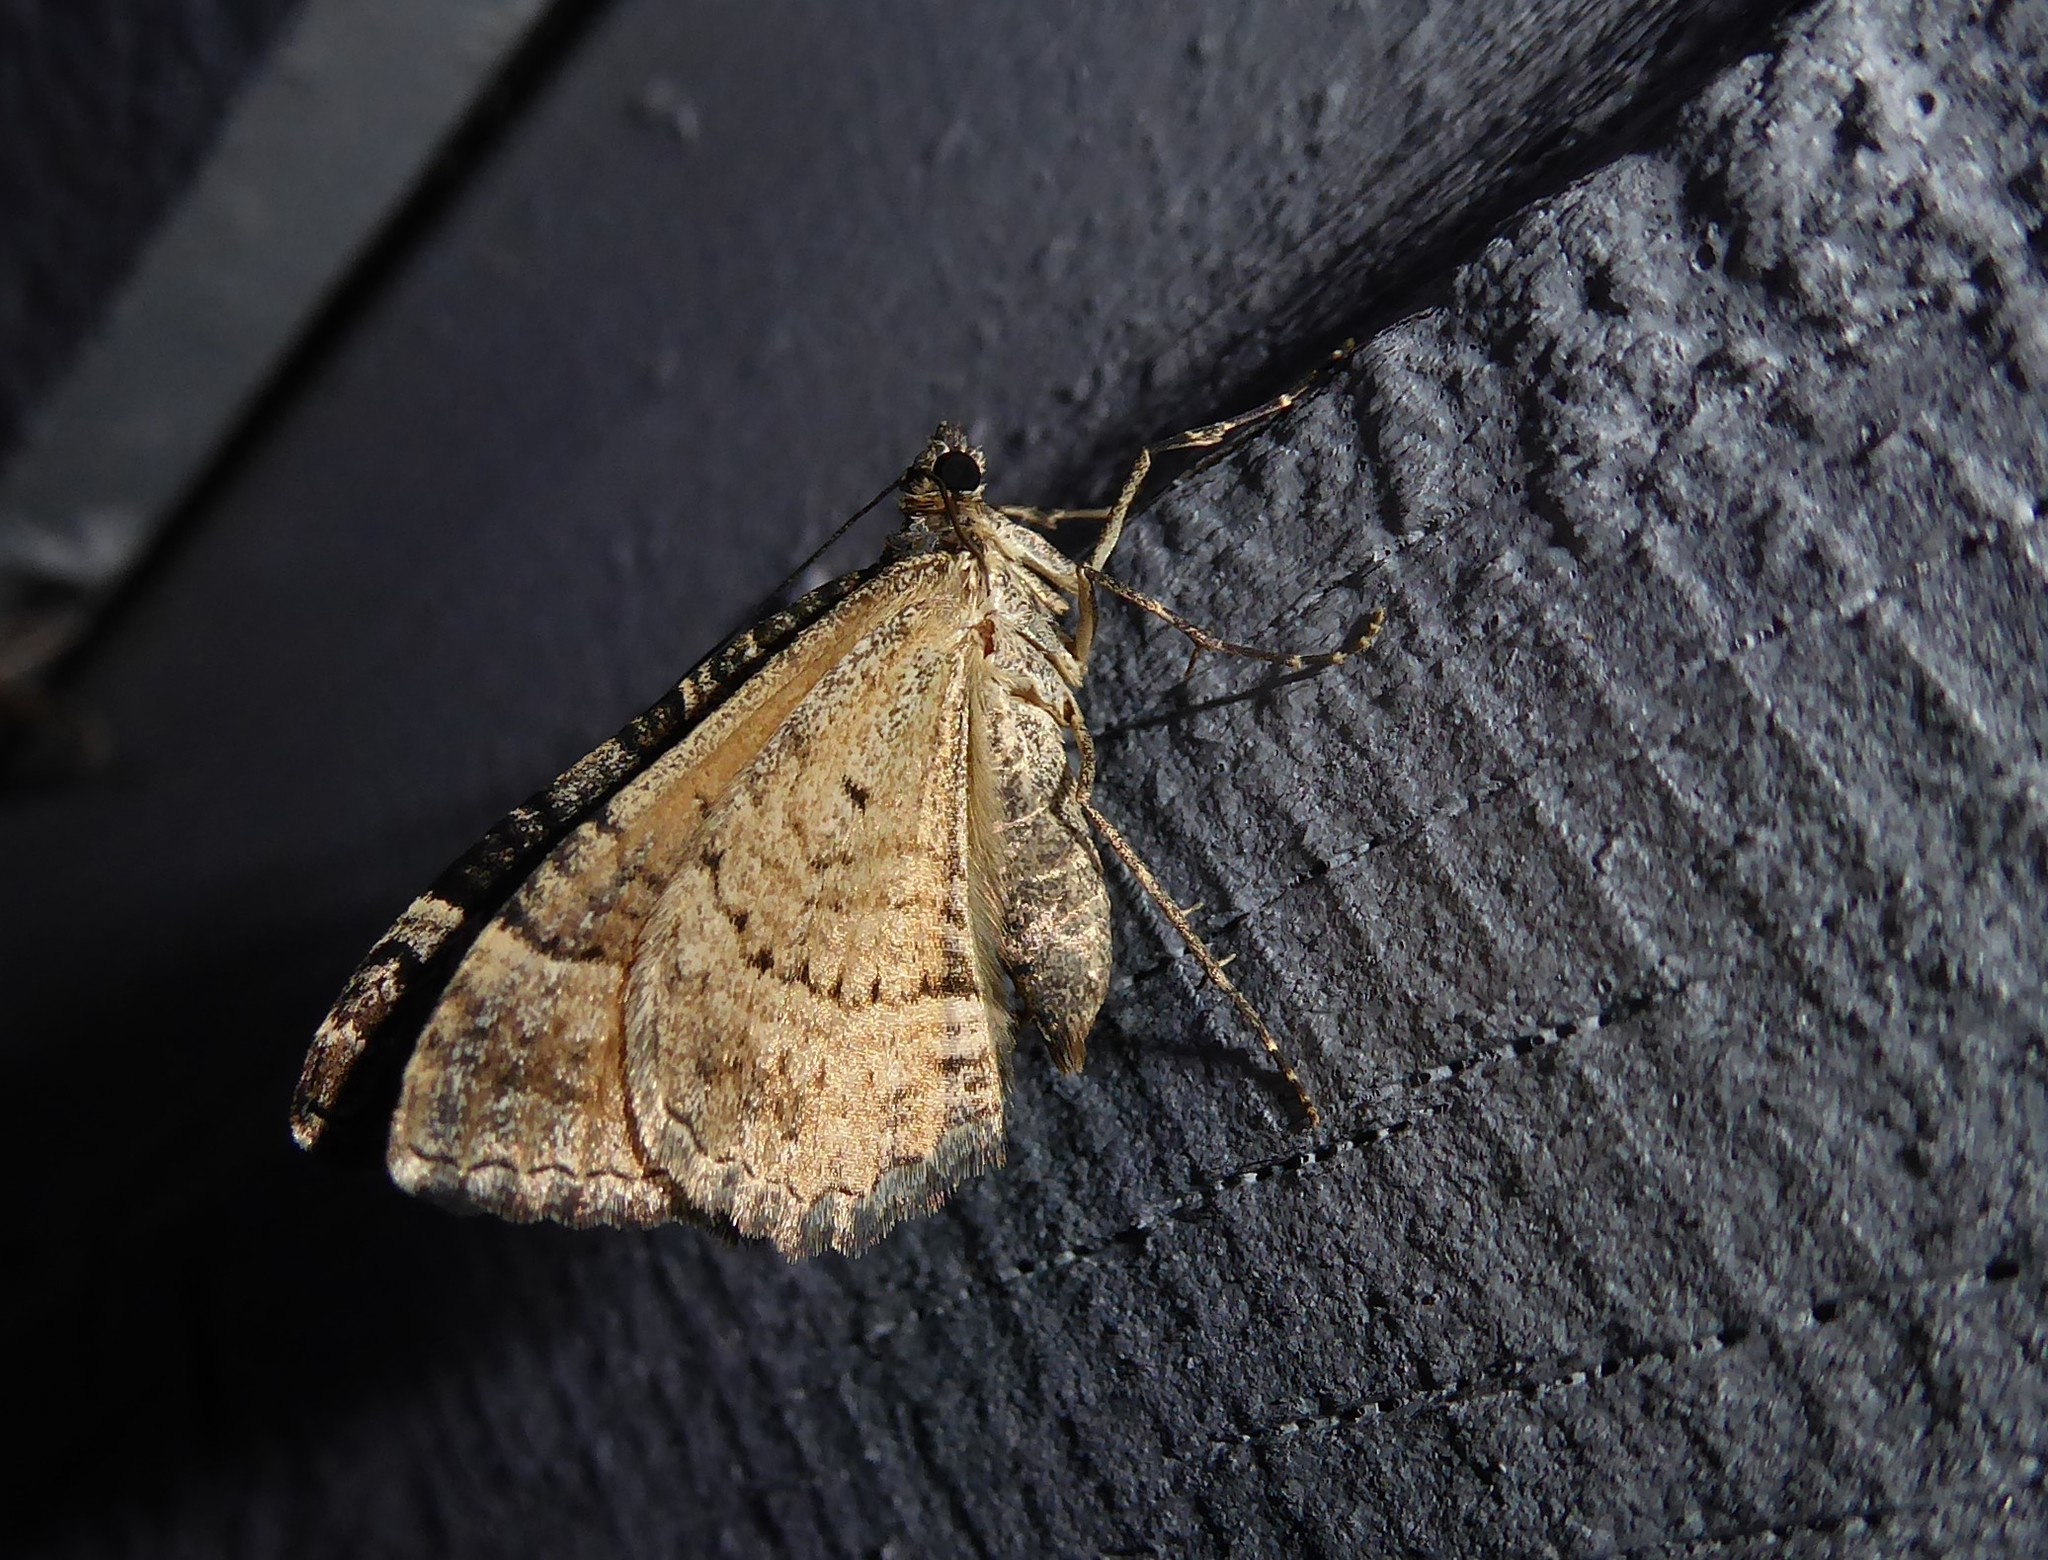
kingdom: Animalia
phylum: Arthropoda
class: Insecta
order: Lepidoptera
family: Geometridae
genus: Hydriomena
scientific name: Hydriomena deltoidata
